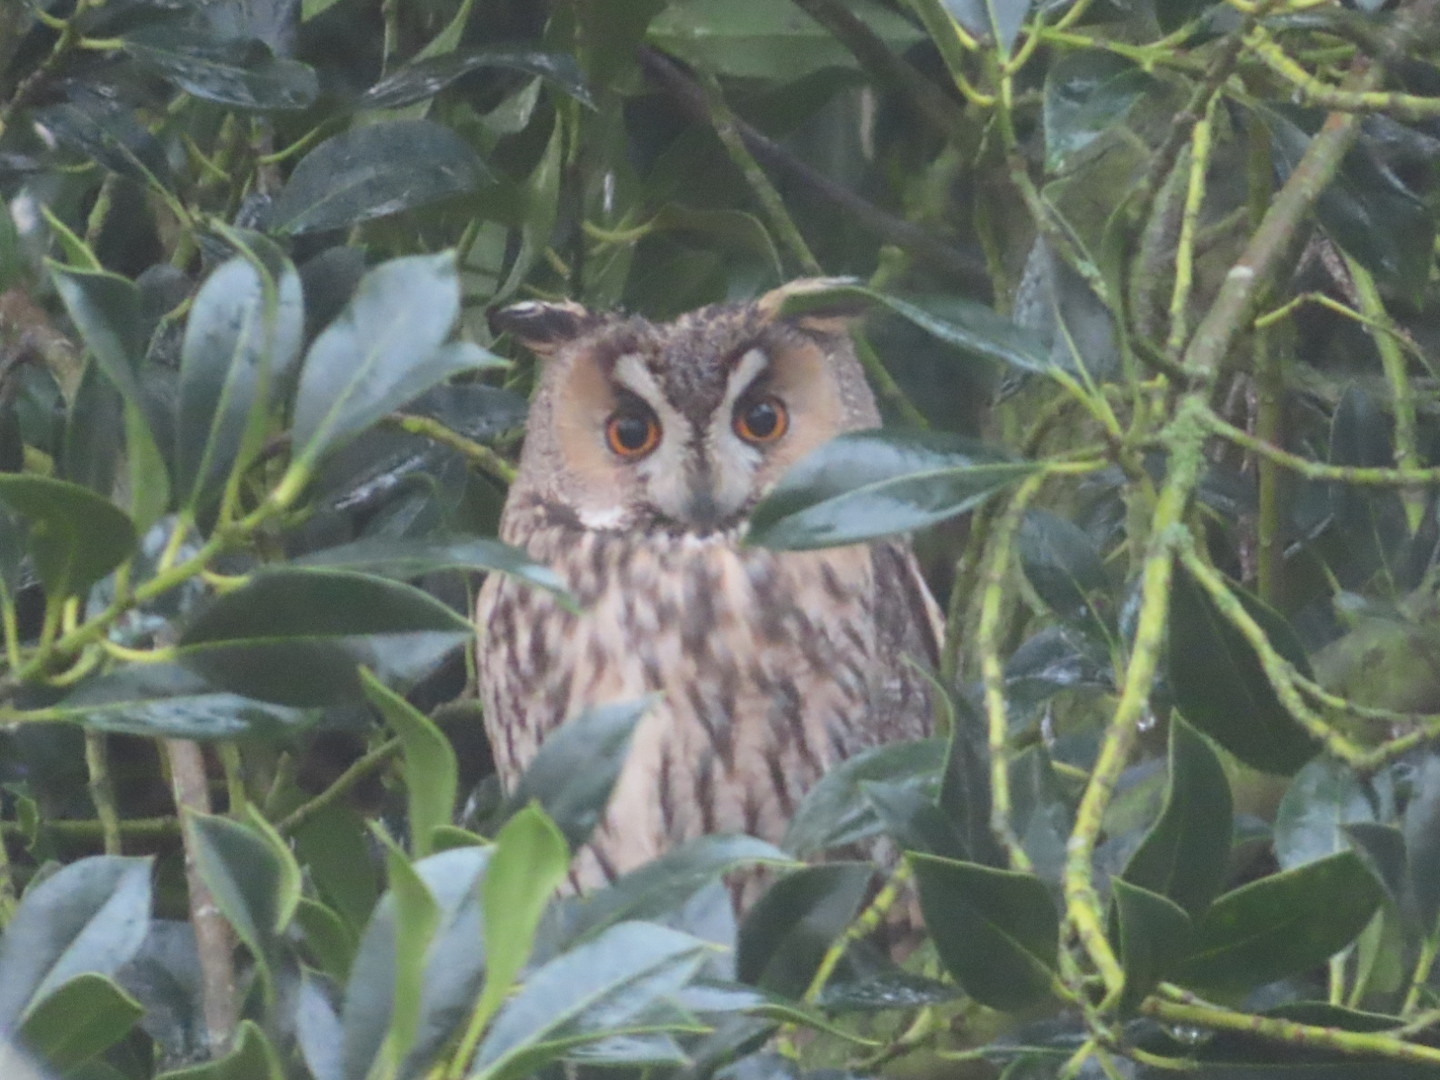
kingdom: Animalia
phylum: Chordata
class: Aves
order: Strigiformes
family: Strigidae
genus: Asio
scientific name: Asio otus
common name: Long-eared owl
